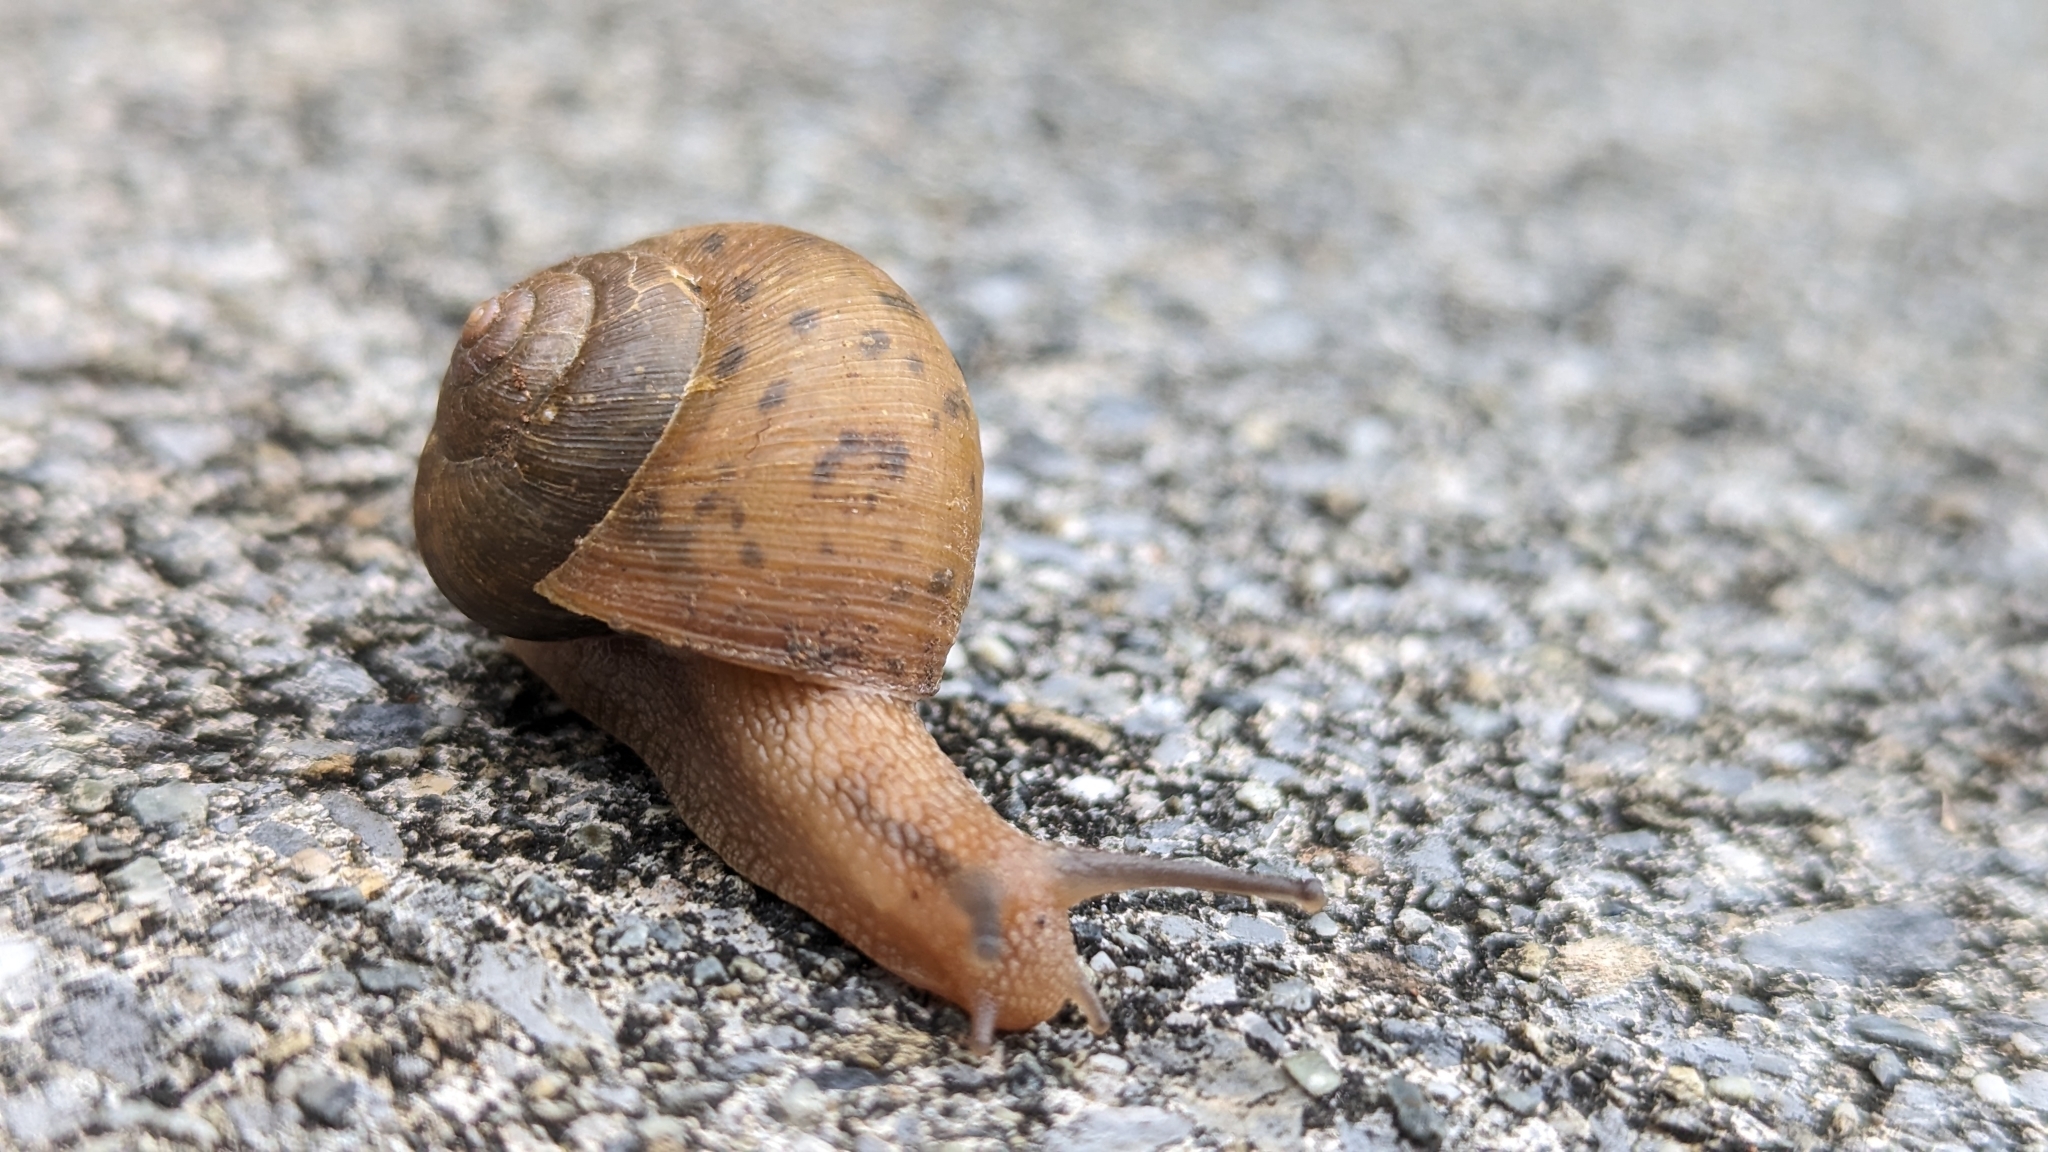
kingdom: Animalia
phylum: Mollusca
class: Gastropoda
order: Stylommatophora
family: Camaenidae
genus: Acusta
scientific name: Acusta despecta
